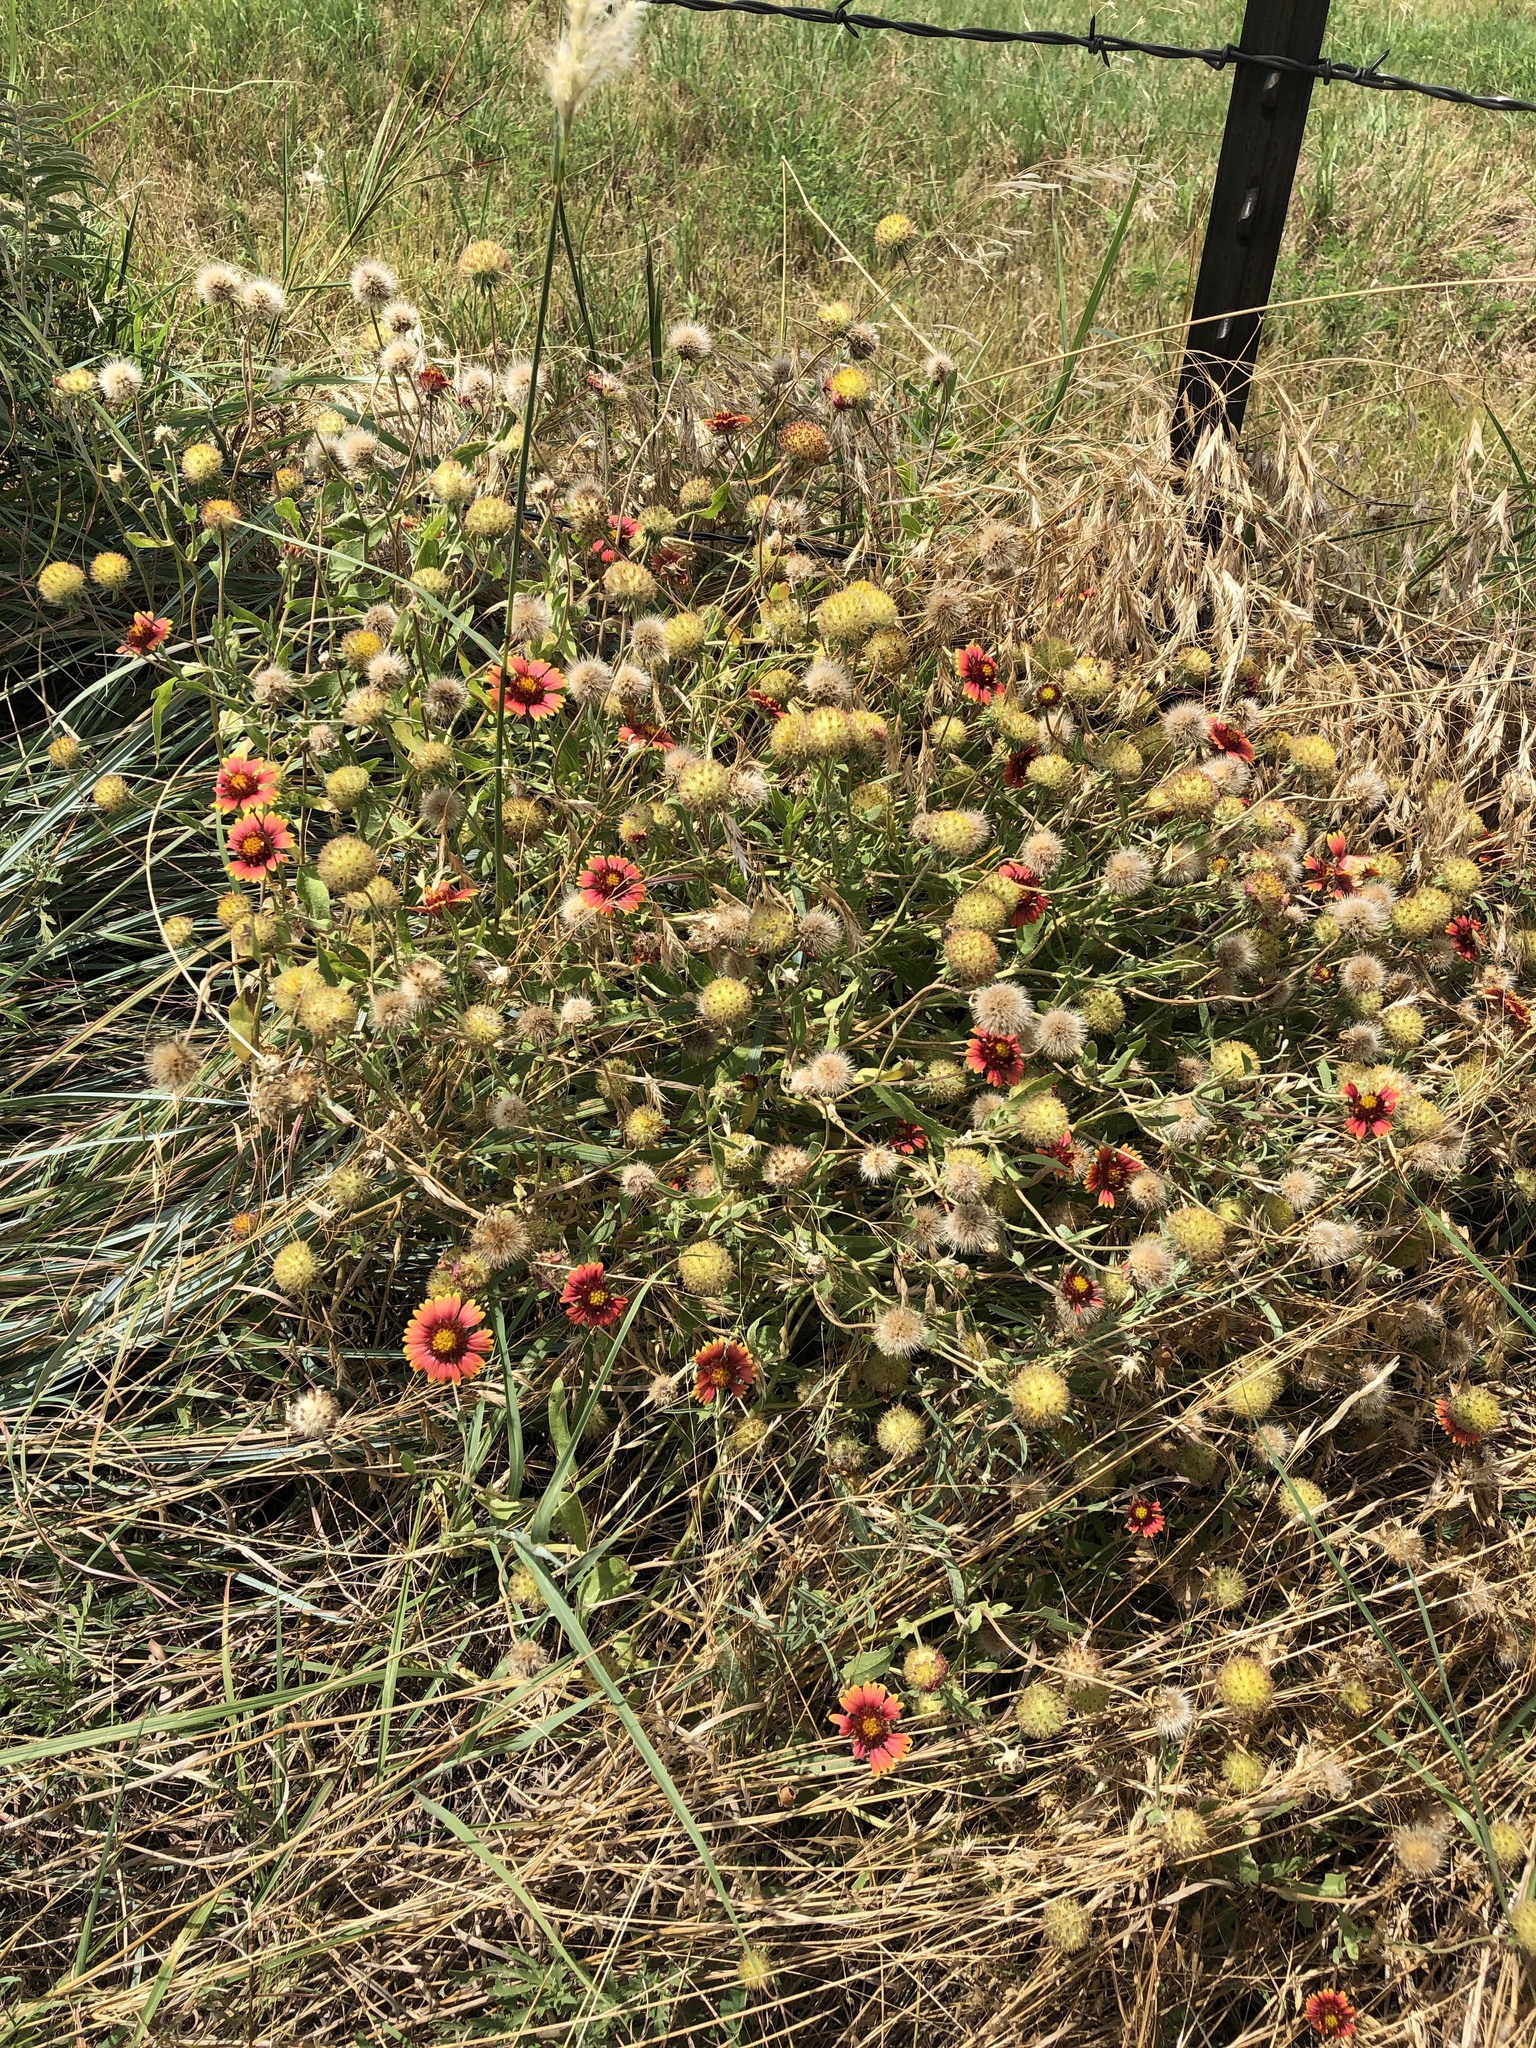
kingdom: Plantae
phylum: Tracheophyta
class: Magnoliopsida
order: Asterales
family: Asteraceae
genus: Gaillardia
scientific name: Gaillardia pulchella
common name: Firewheel
